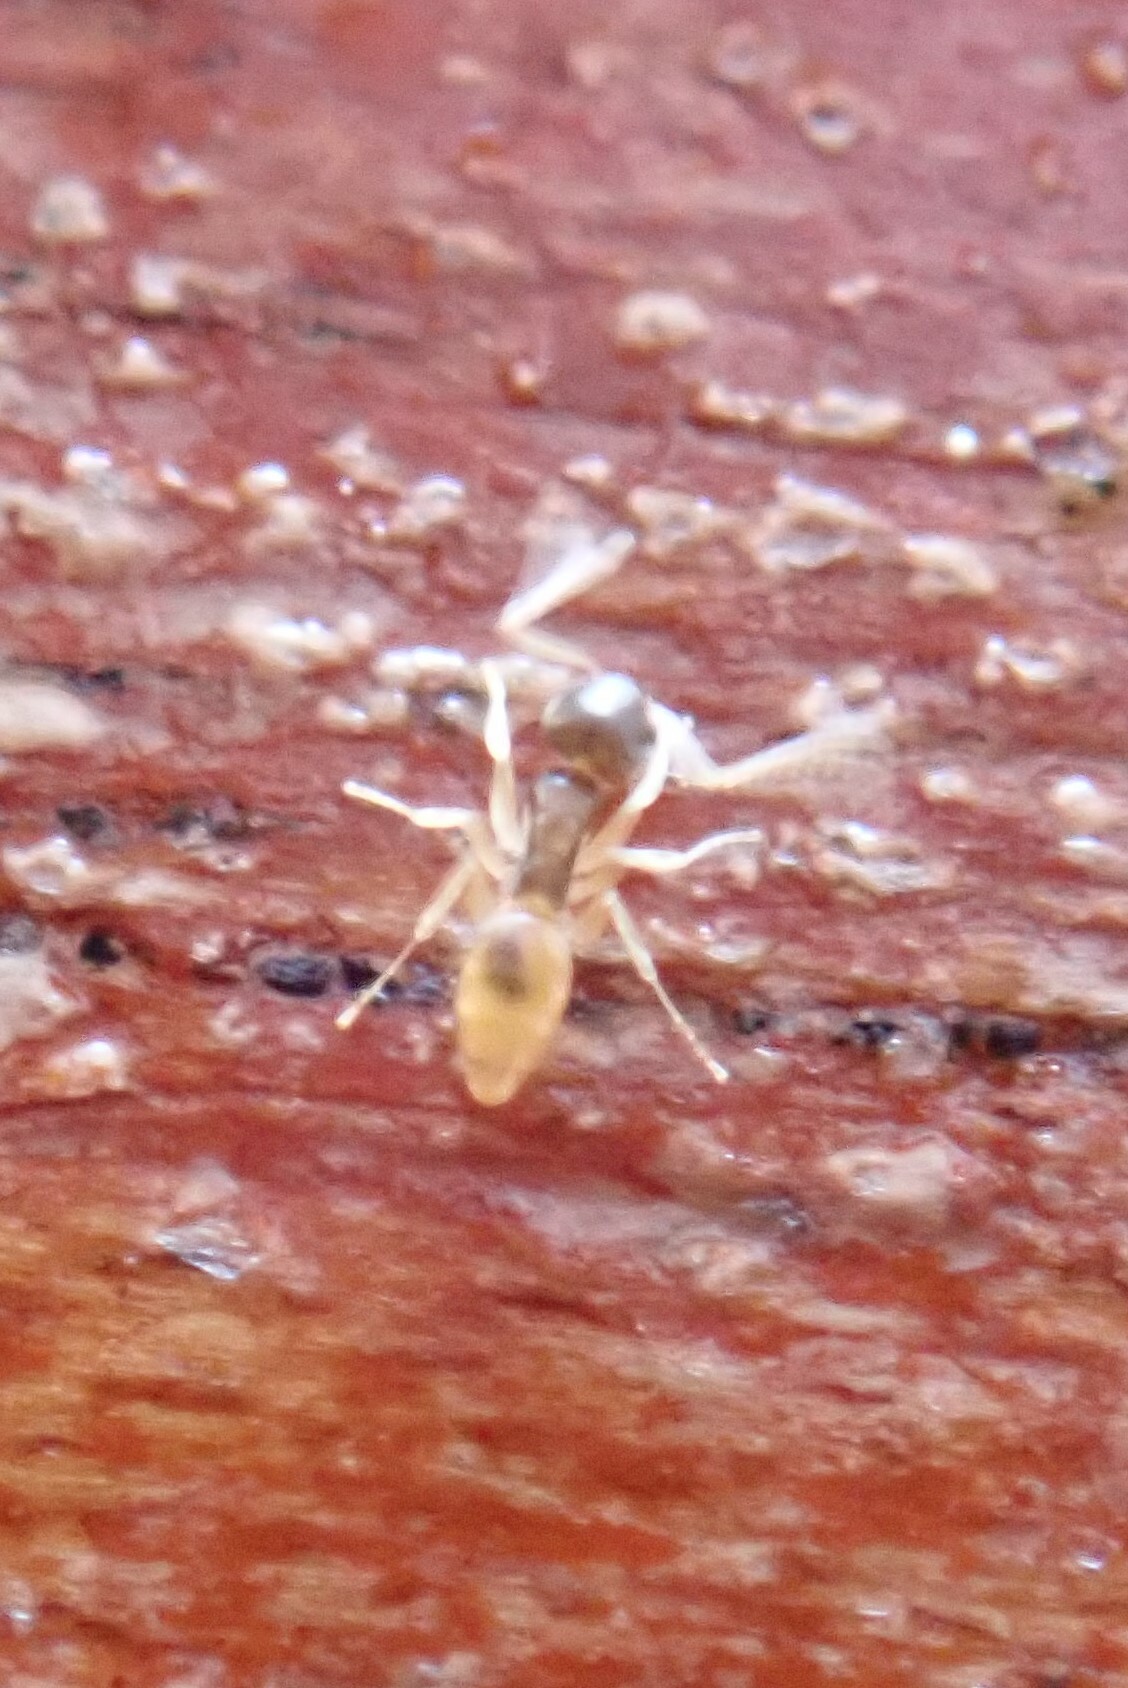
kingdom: Animalia
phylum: Arthropoda
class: Insecta
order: Hymenoptera
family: Formicidae
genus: Tapinoma
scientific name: Tapinoma melanocephalum
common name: Ghost ant
